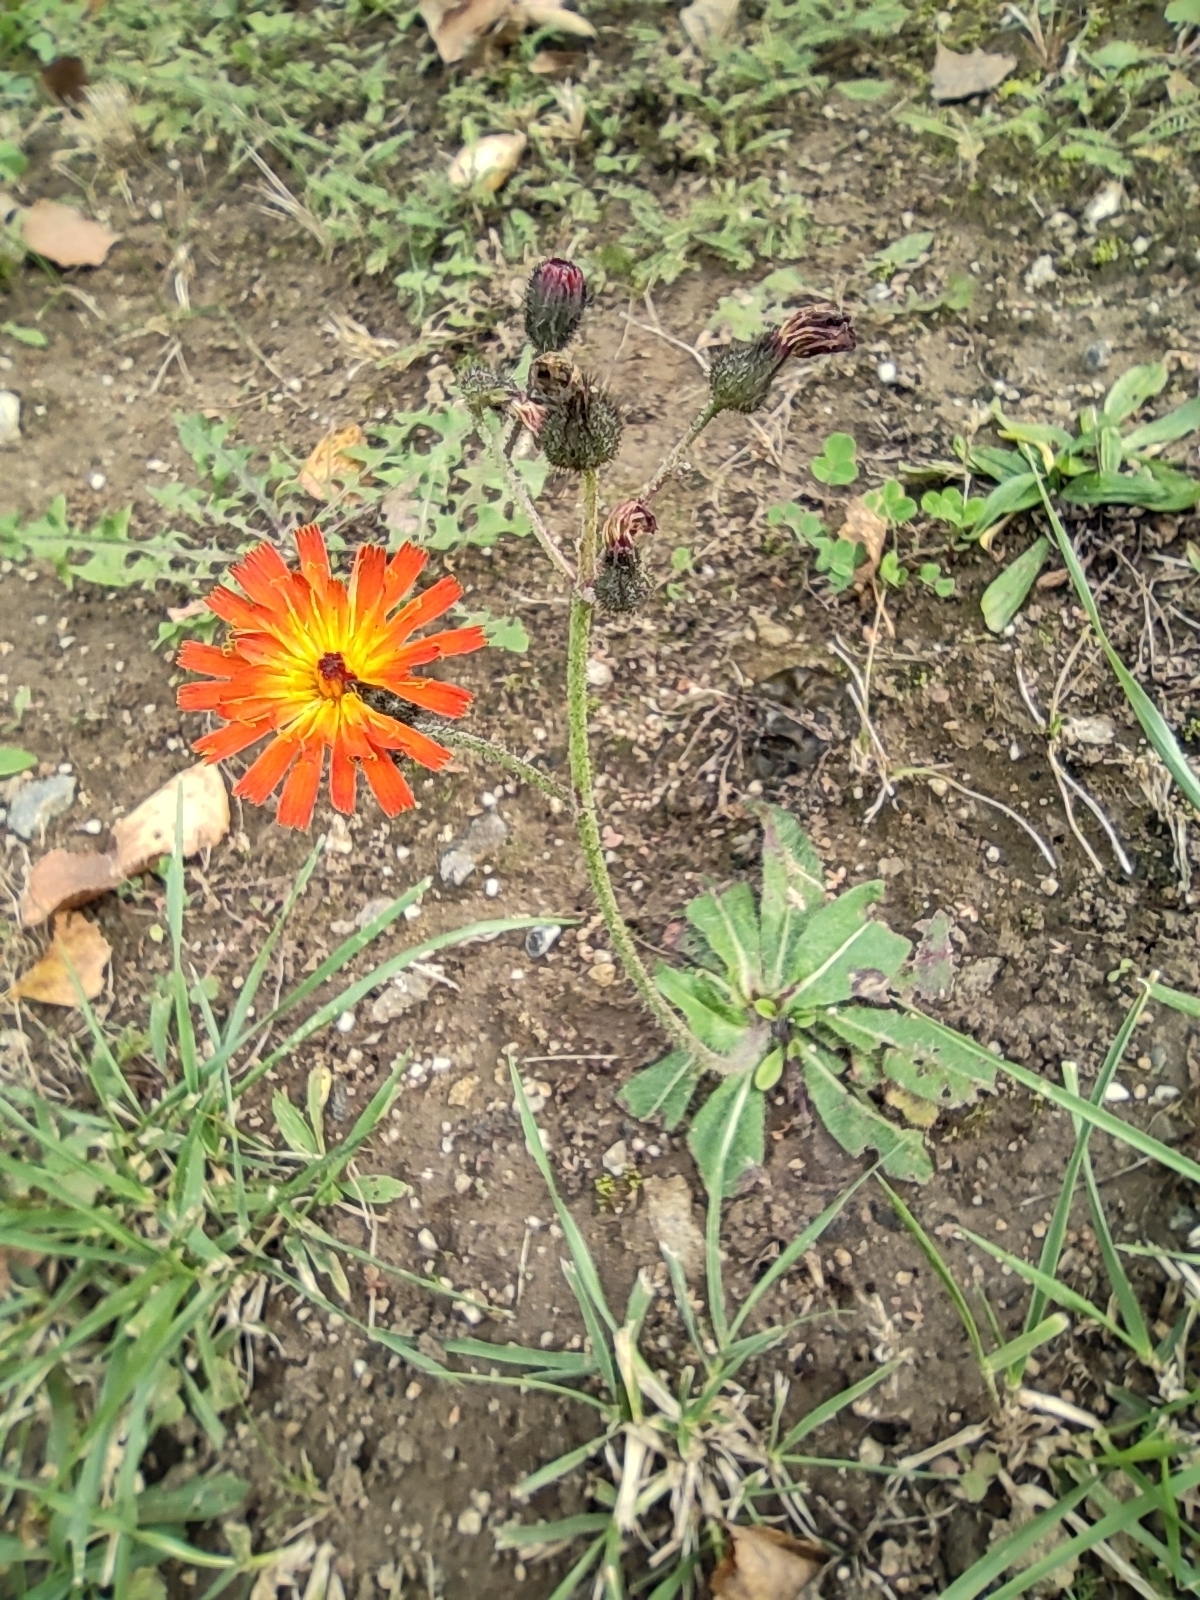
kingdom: Plantae
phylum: Tracheophyta
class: Magnoliopsida
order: Asterales
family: Asteraceae
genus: Pilosella
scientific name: Pilosella aurantiaca
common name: Fox-and-cubs
